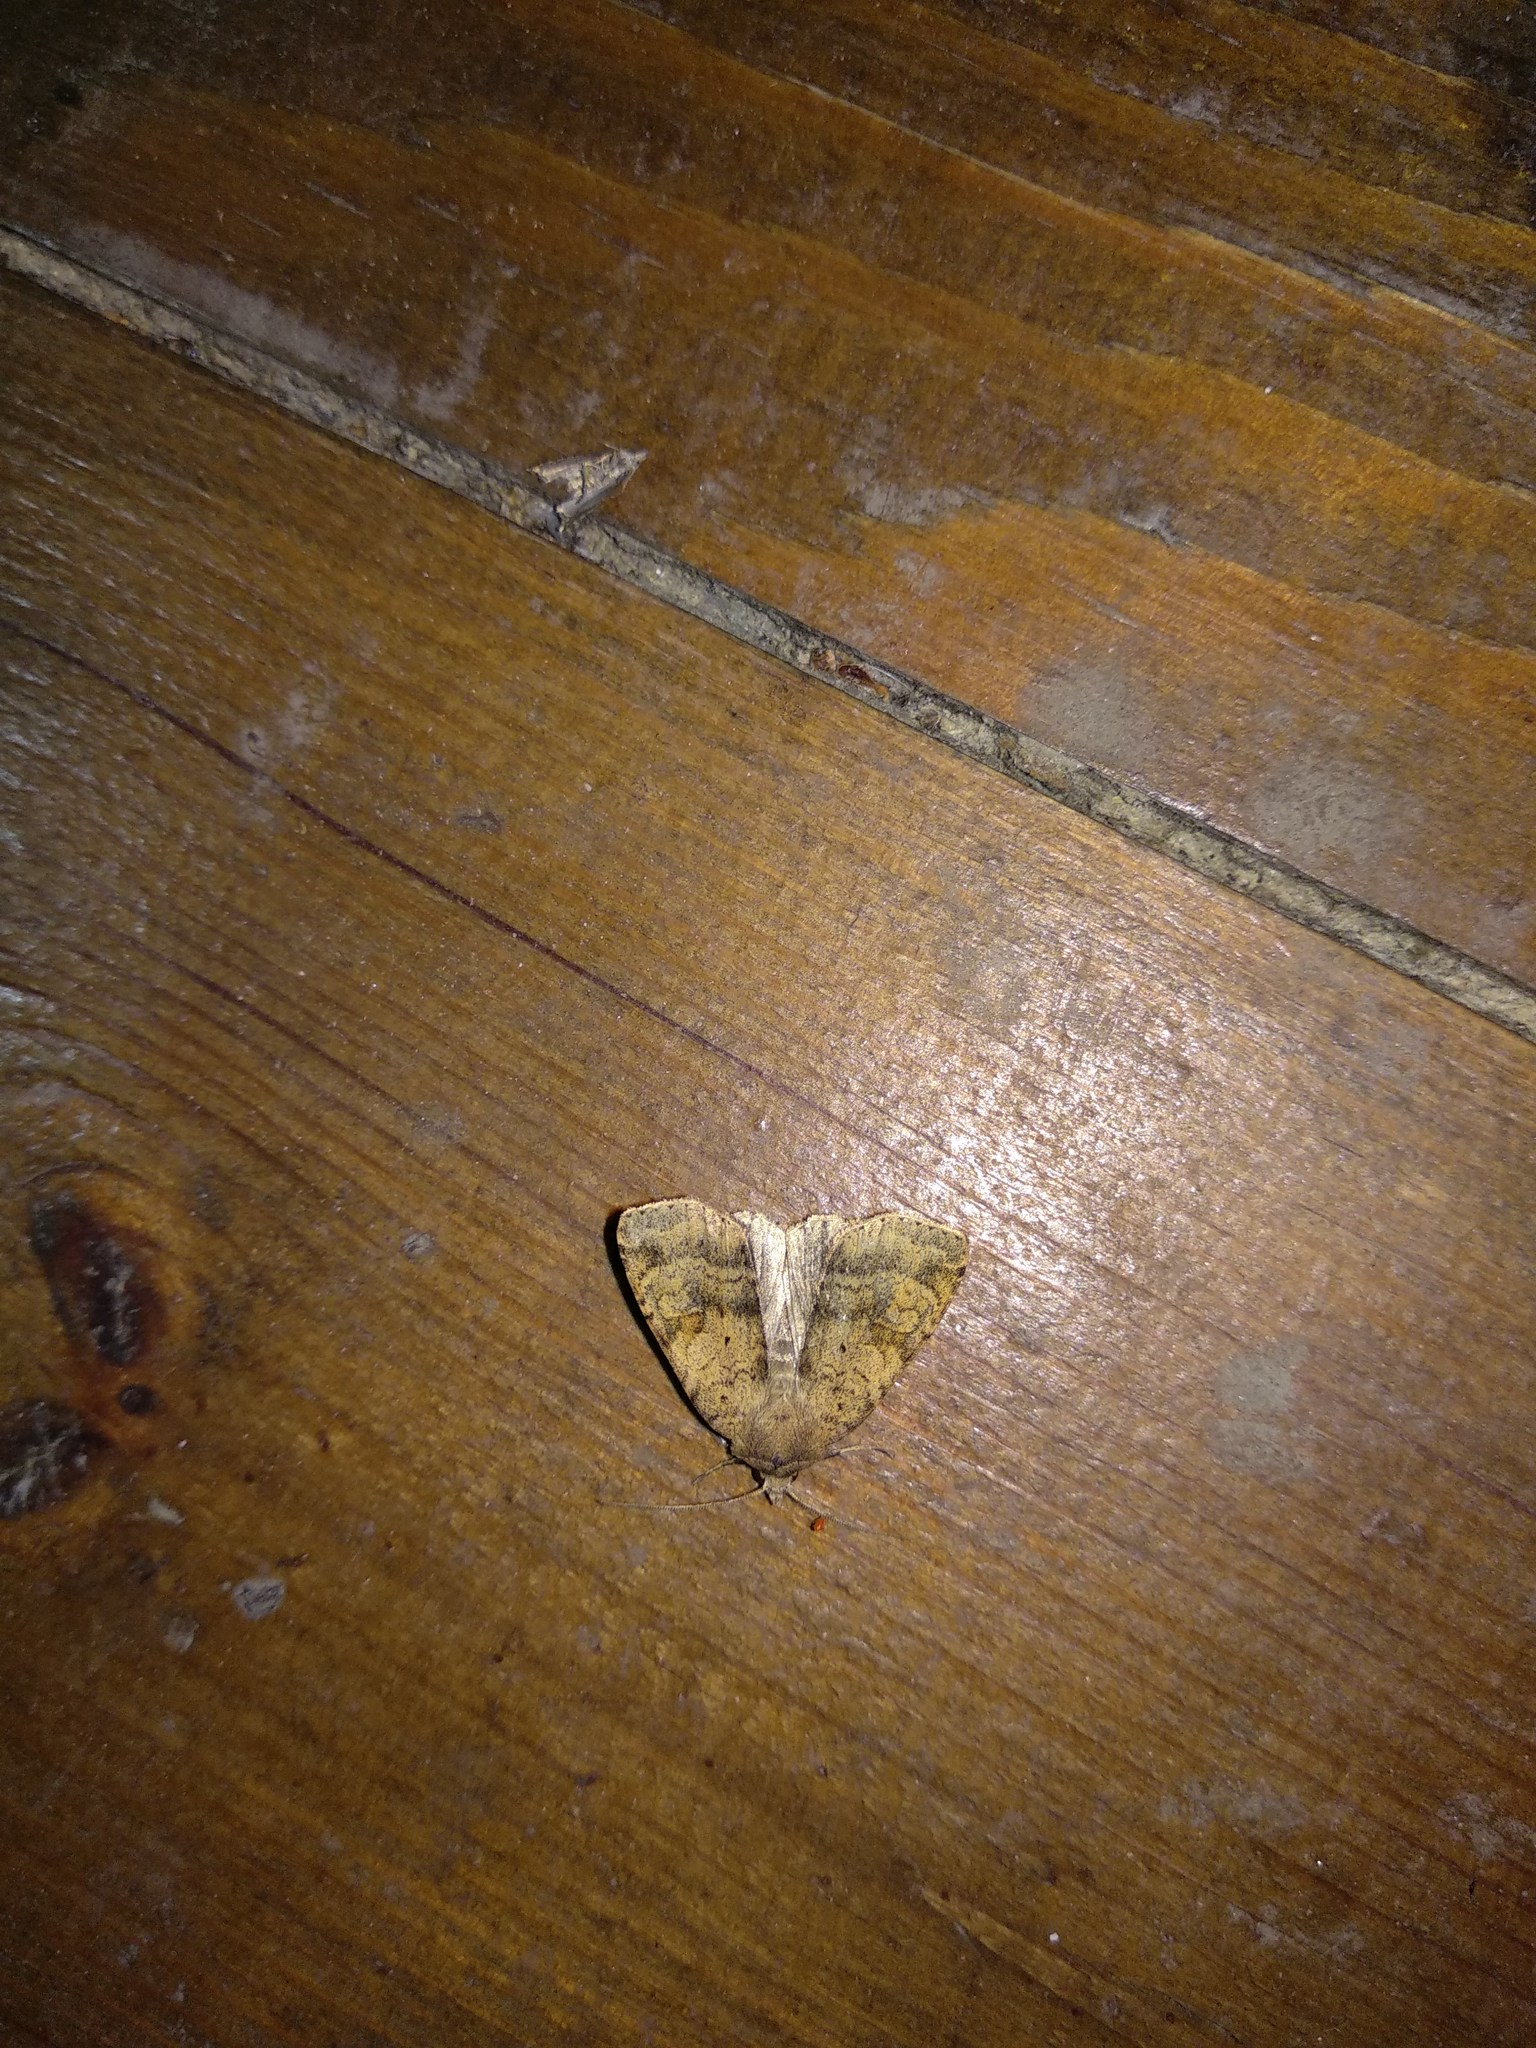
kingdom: Animalia
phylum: Arthropoda
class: Insecta
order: Lepidoptera
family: Noctuidae
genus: Diarsia
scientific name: Diarsia dahlii
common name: Barred chestnut
